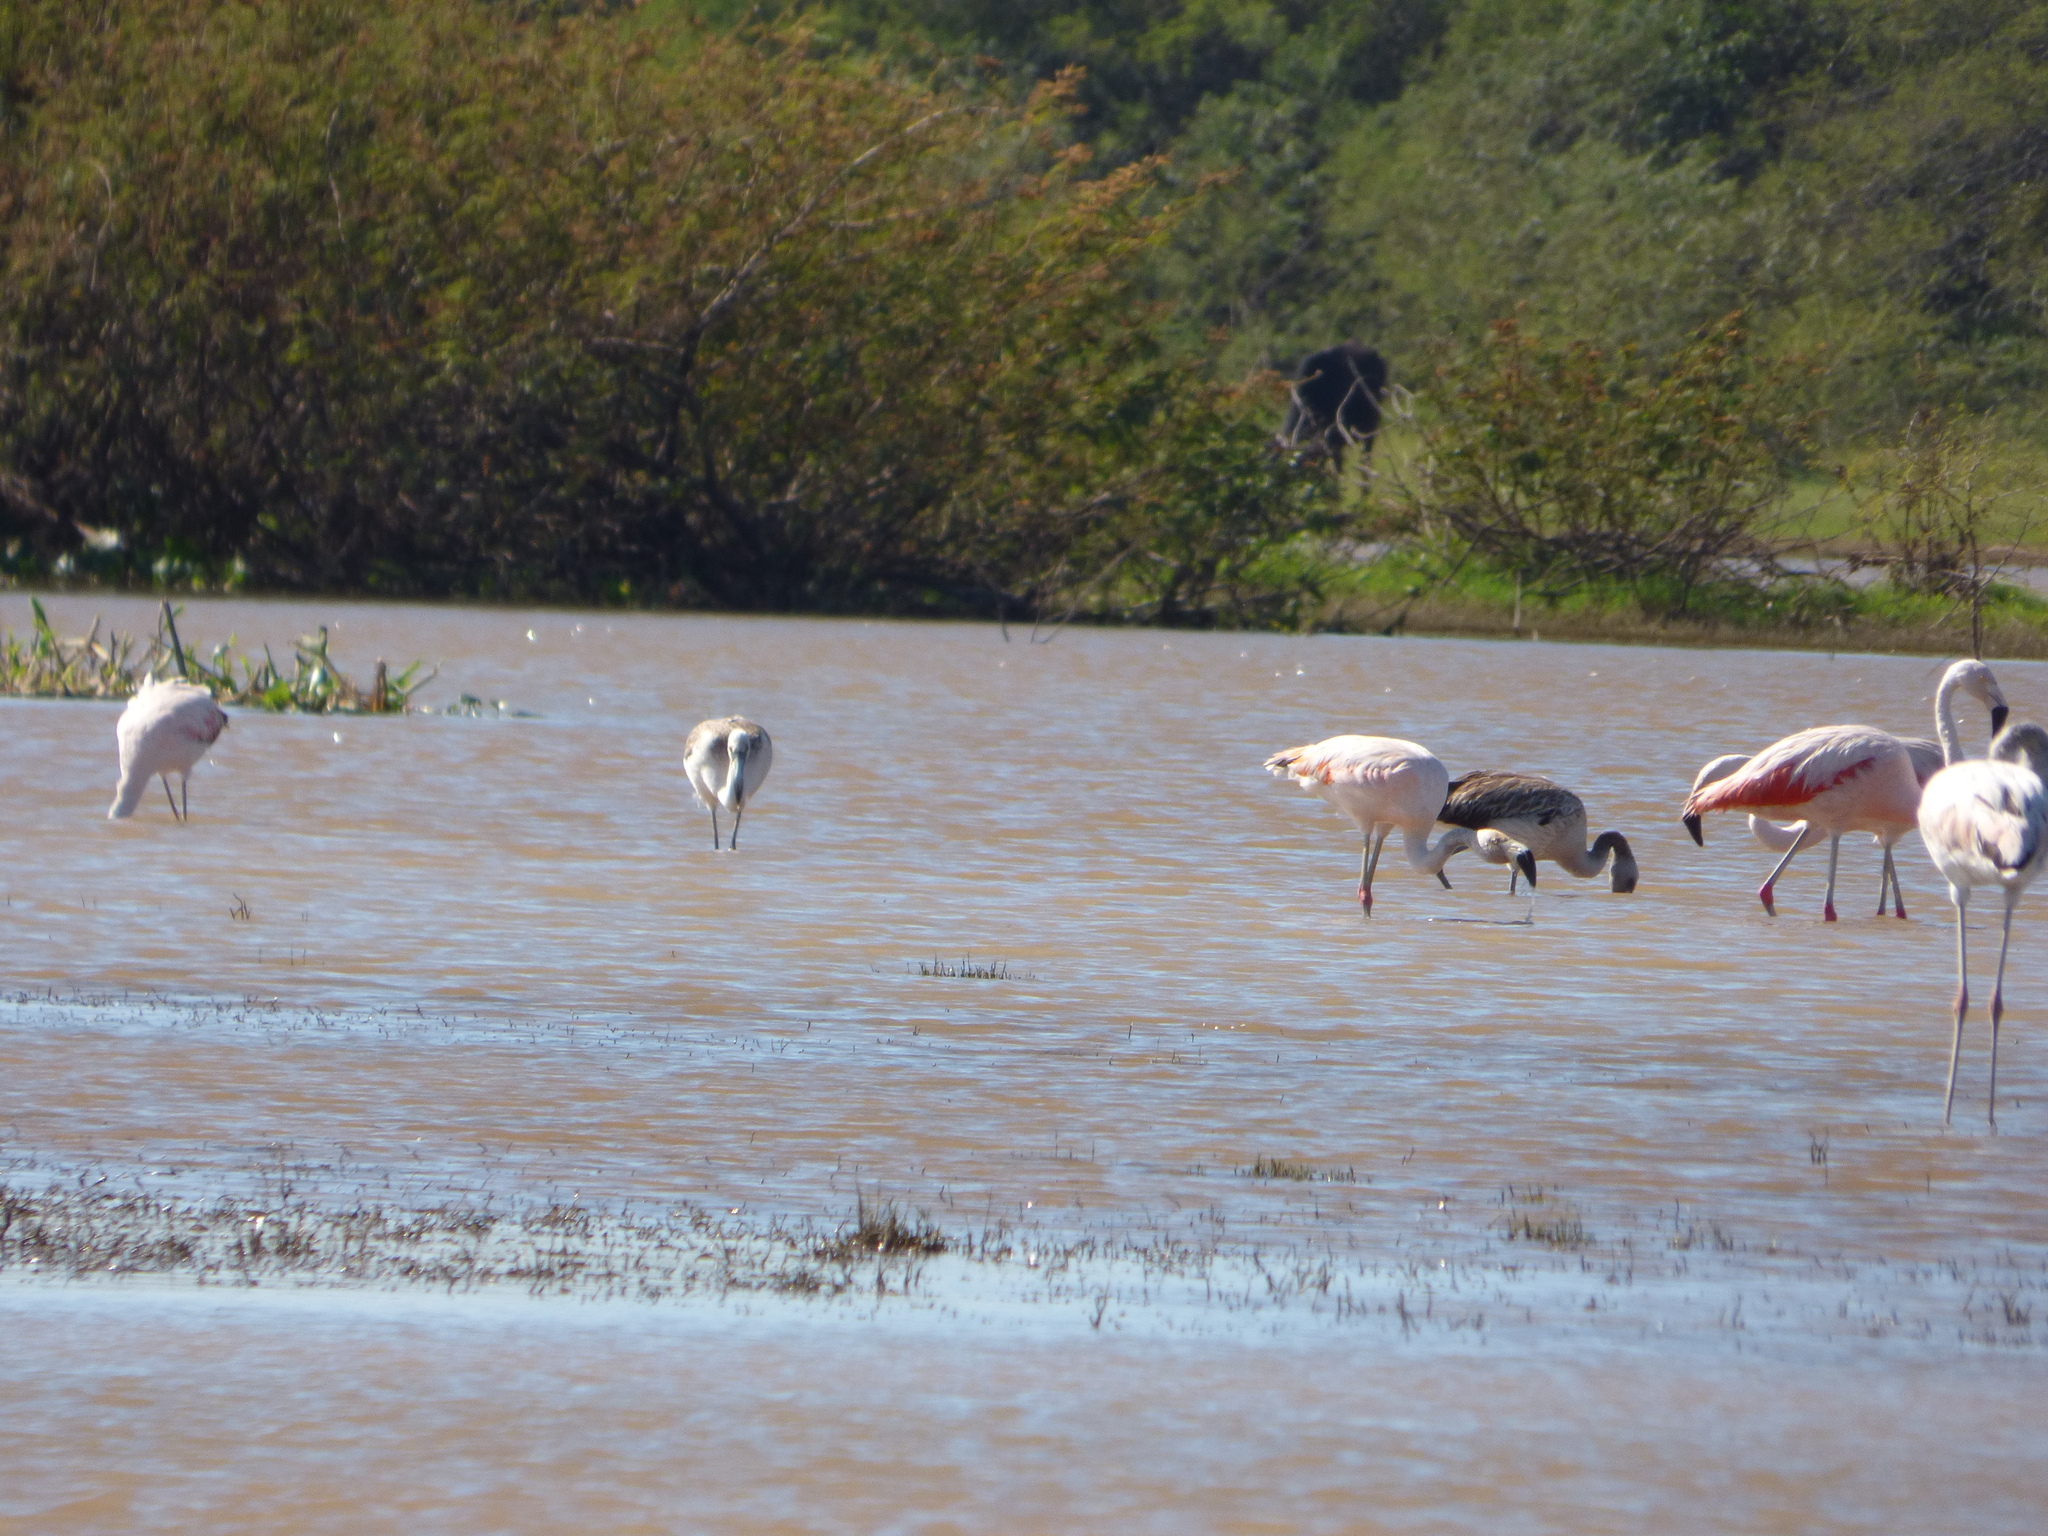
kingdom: Animalia
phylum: Chordata
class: Aves
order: Phoenicopteriformes
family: Phoenicopteridae
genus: Phoenicopterus
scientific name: Phoenicopterus chilensis
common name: Chilean flamingo
